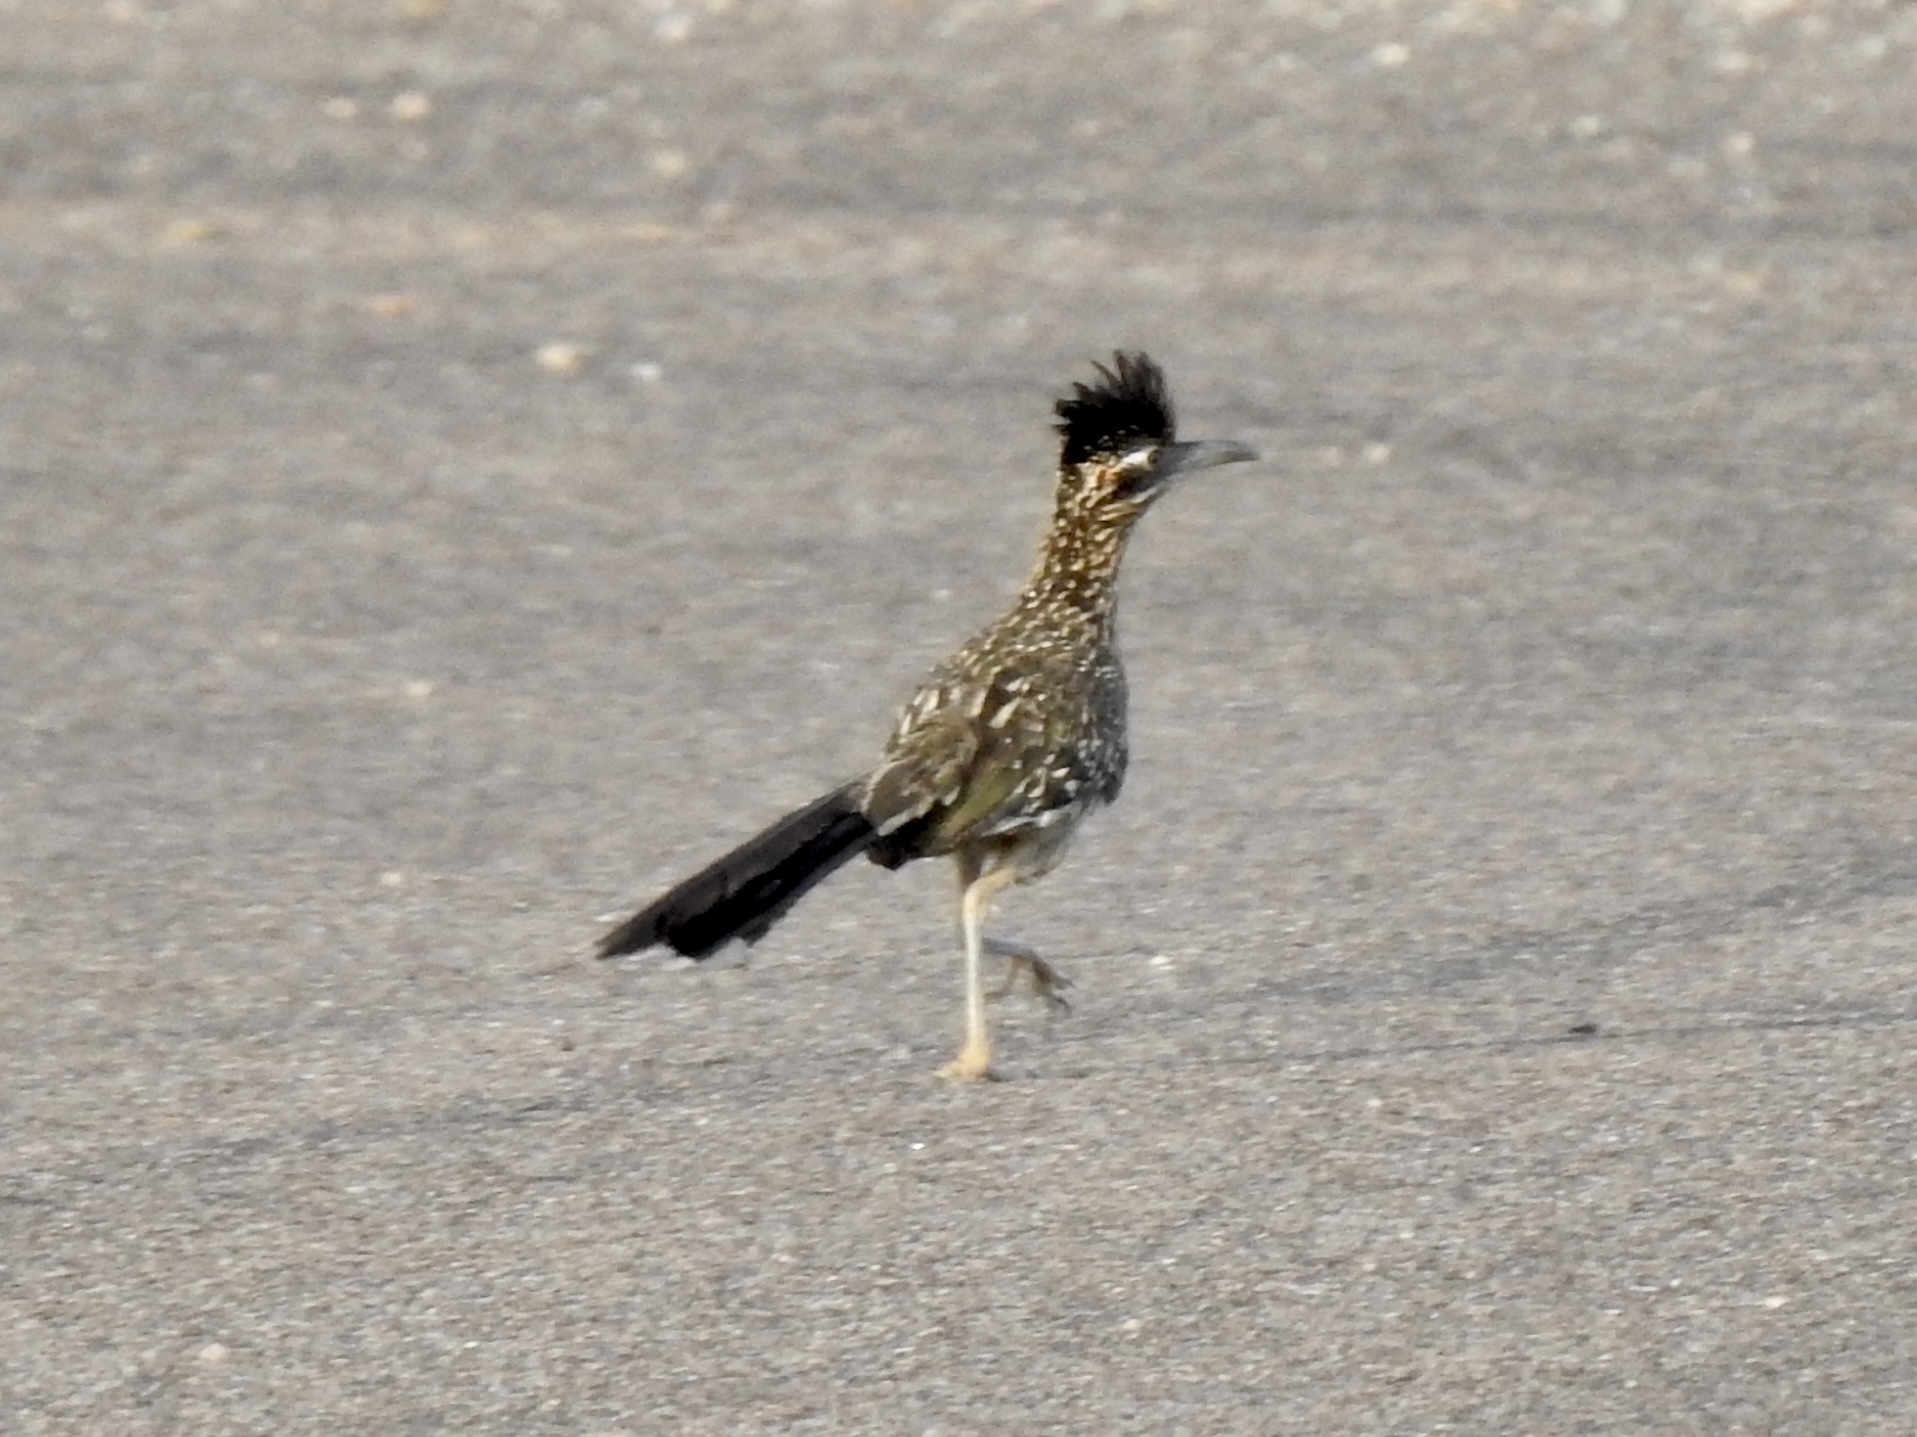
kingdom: Animalia
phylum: Chordata
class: Aves
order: Cuculiformes
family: Cuculidae
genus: Geococcyx
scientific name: Geococcyx californianus
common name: Greater roadrunner
